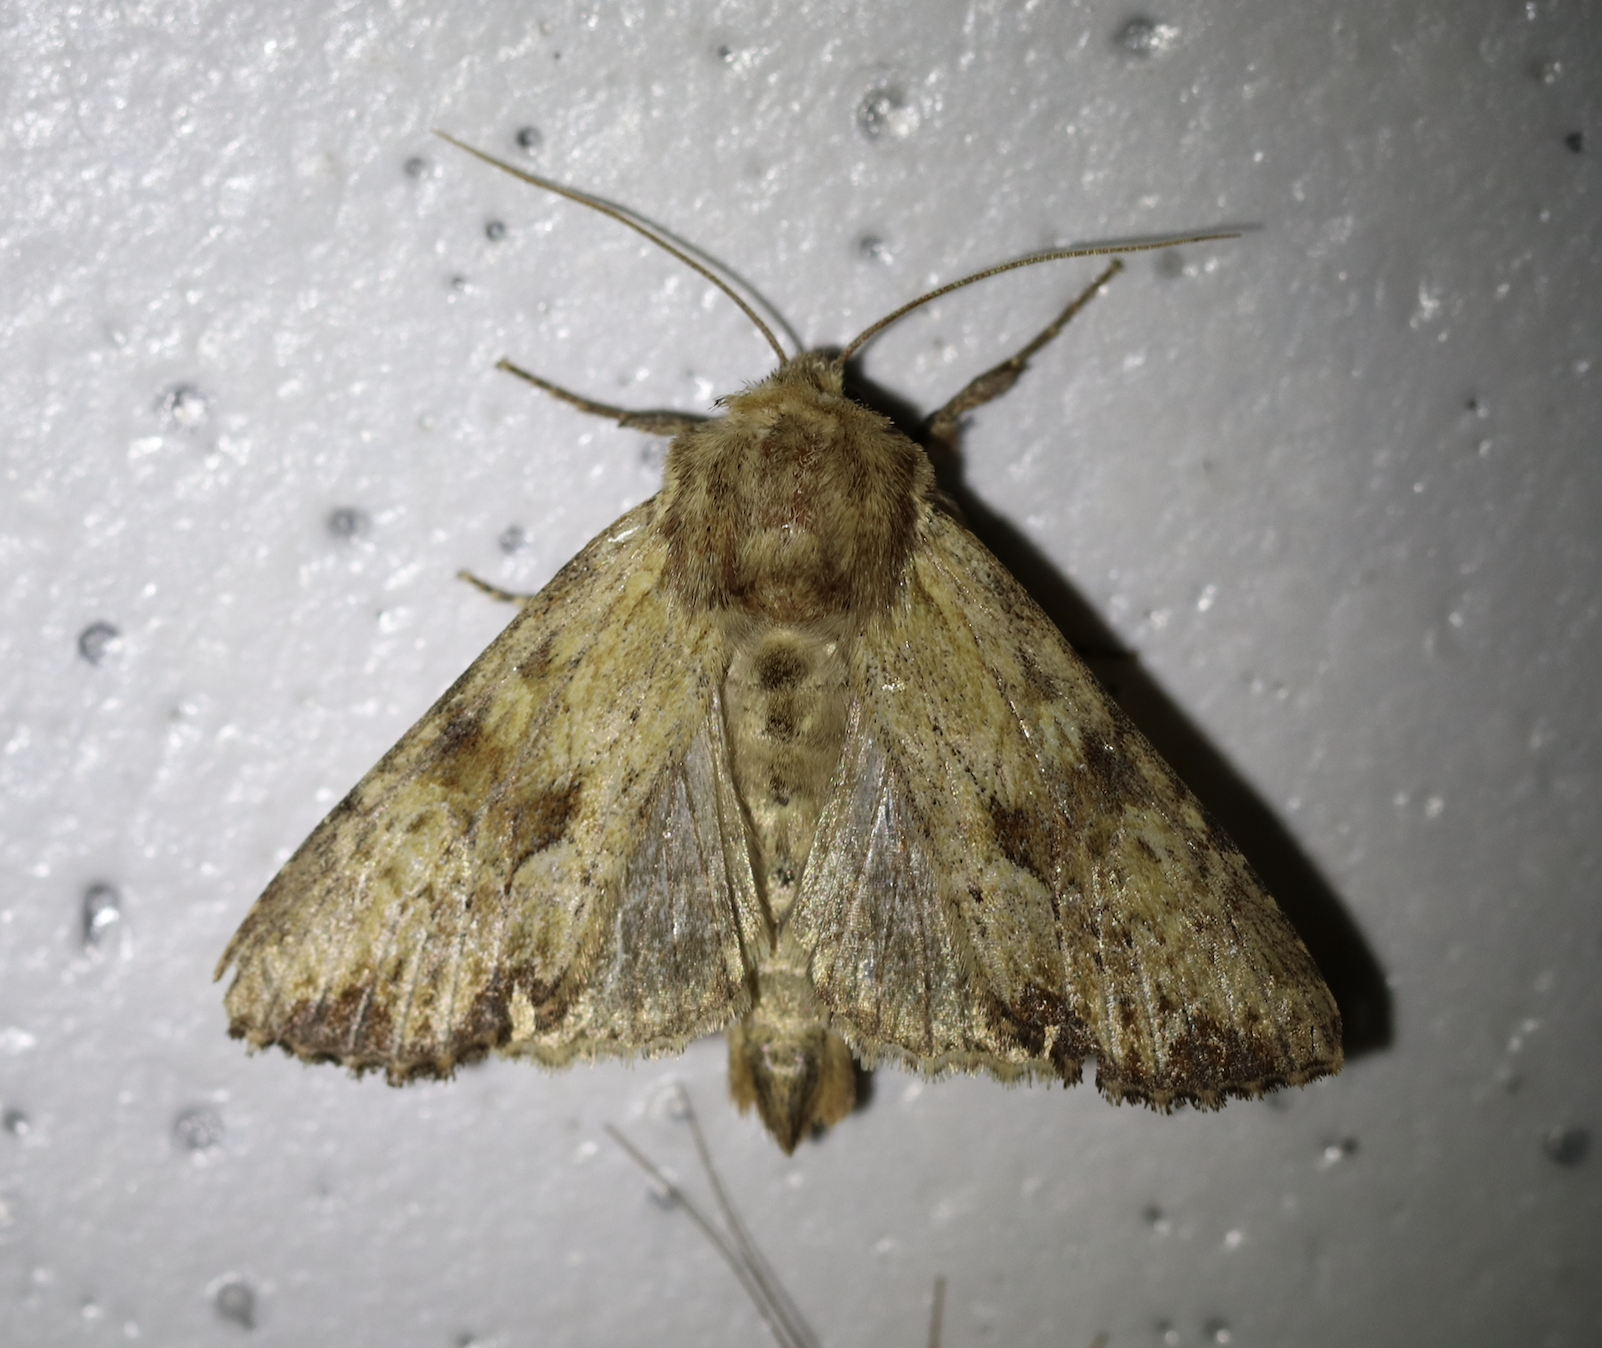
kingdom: Animalia
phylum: Arthropoda
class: Insecta
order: Lepidoptera
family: Noctuidae
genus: Apamea
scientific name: Apamea sublustris
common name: Reddish light arches
